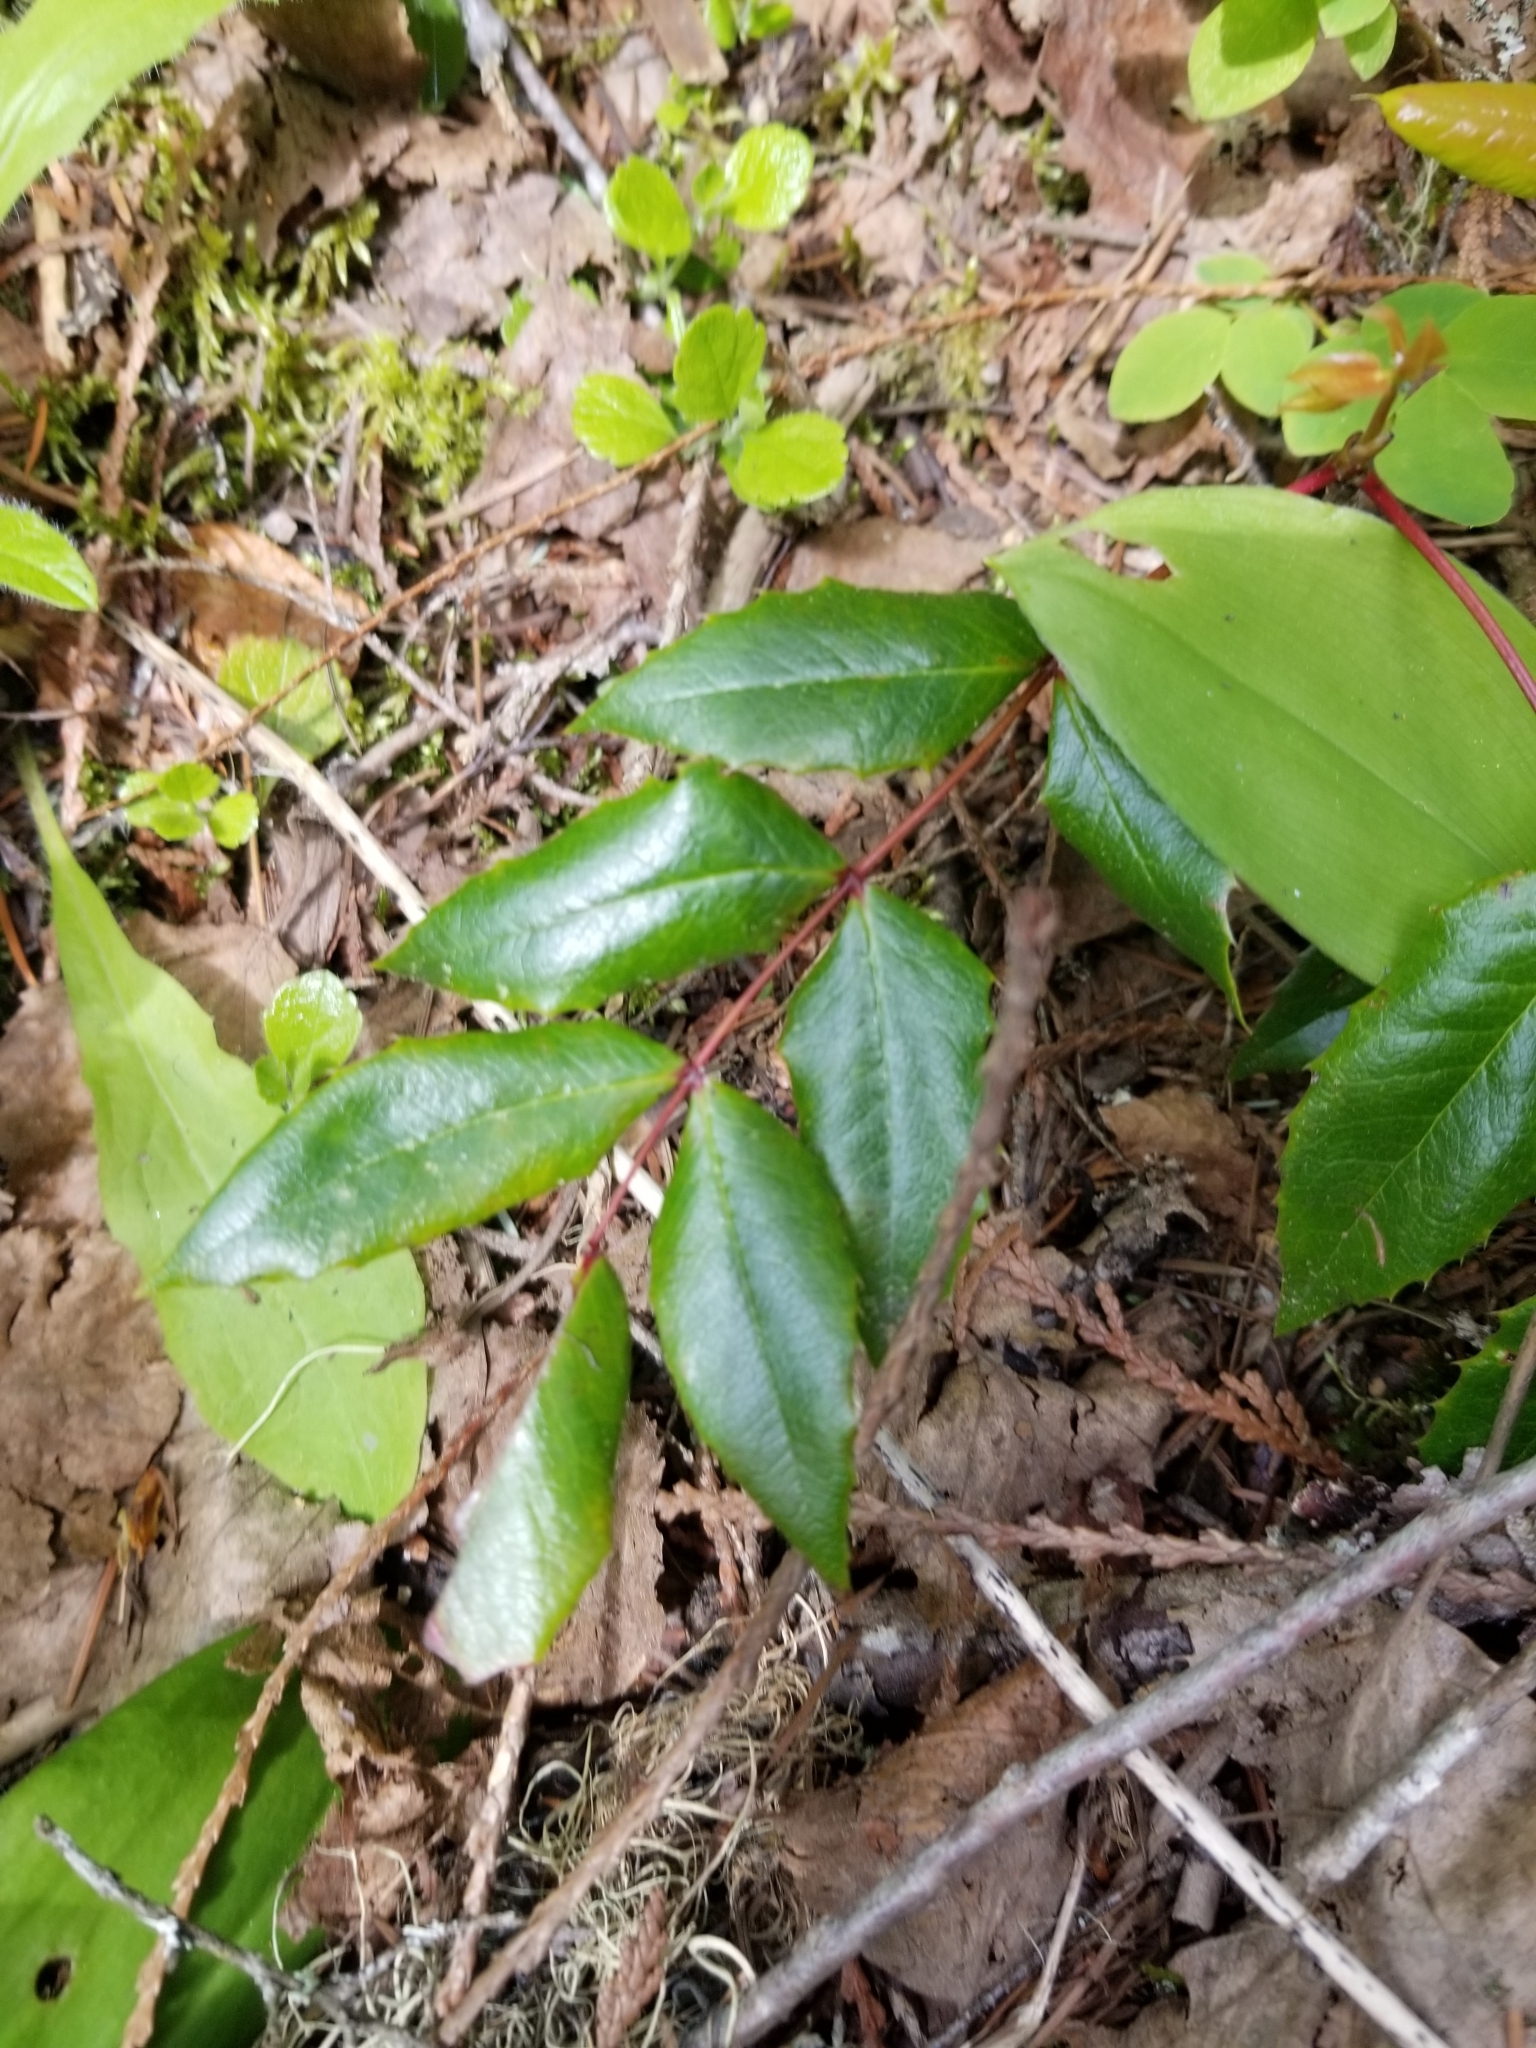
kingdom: Plantae
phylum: Tracheophyta
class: Magnoliopsida
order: Ranunculales
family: Berberidaceae
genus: Mahonia
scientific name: Mahonia aquifolium
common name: Oregon-grape
